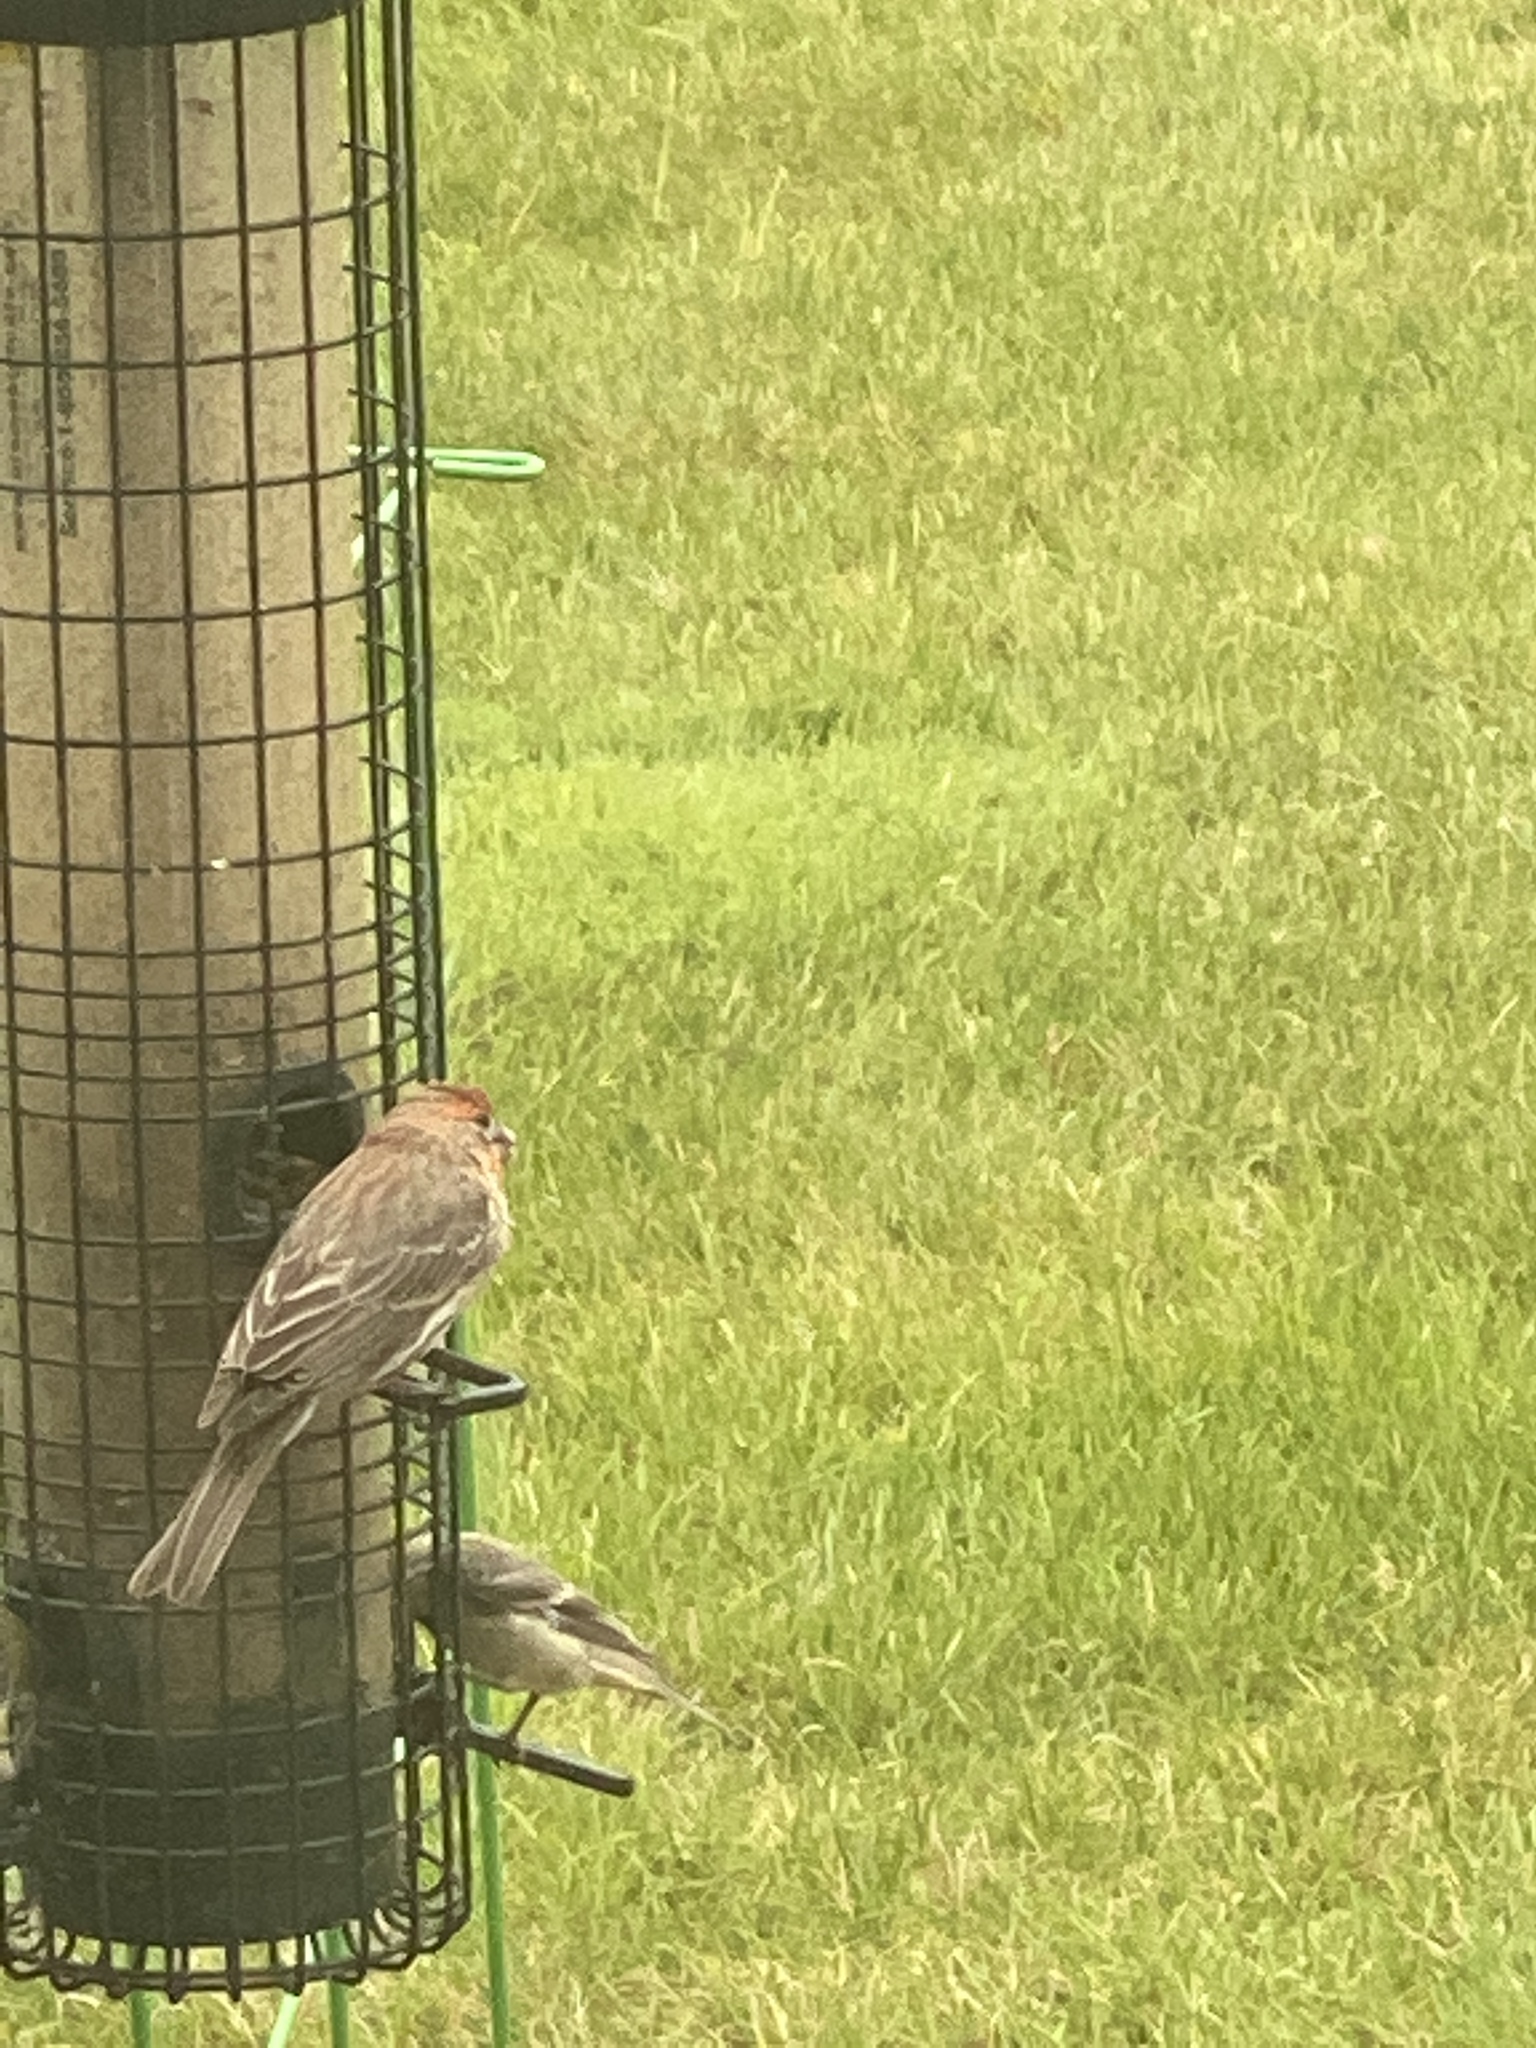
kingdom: Animalia
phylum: Chordata
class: Aves
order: Passeriformes
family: Fringillidae
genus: Haemorhous
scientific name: Haemorhous mexicanus
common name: House finch
